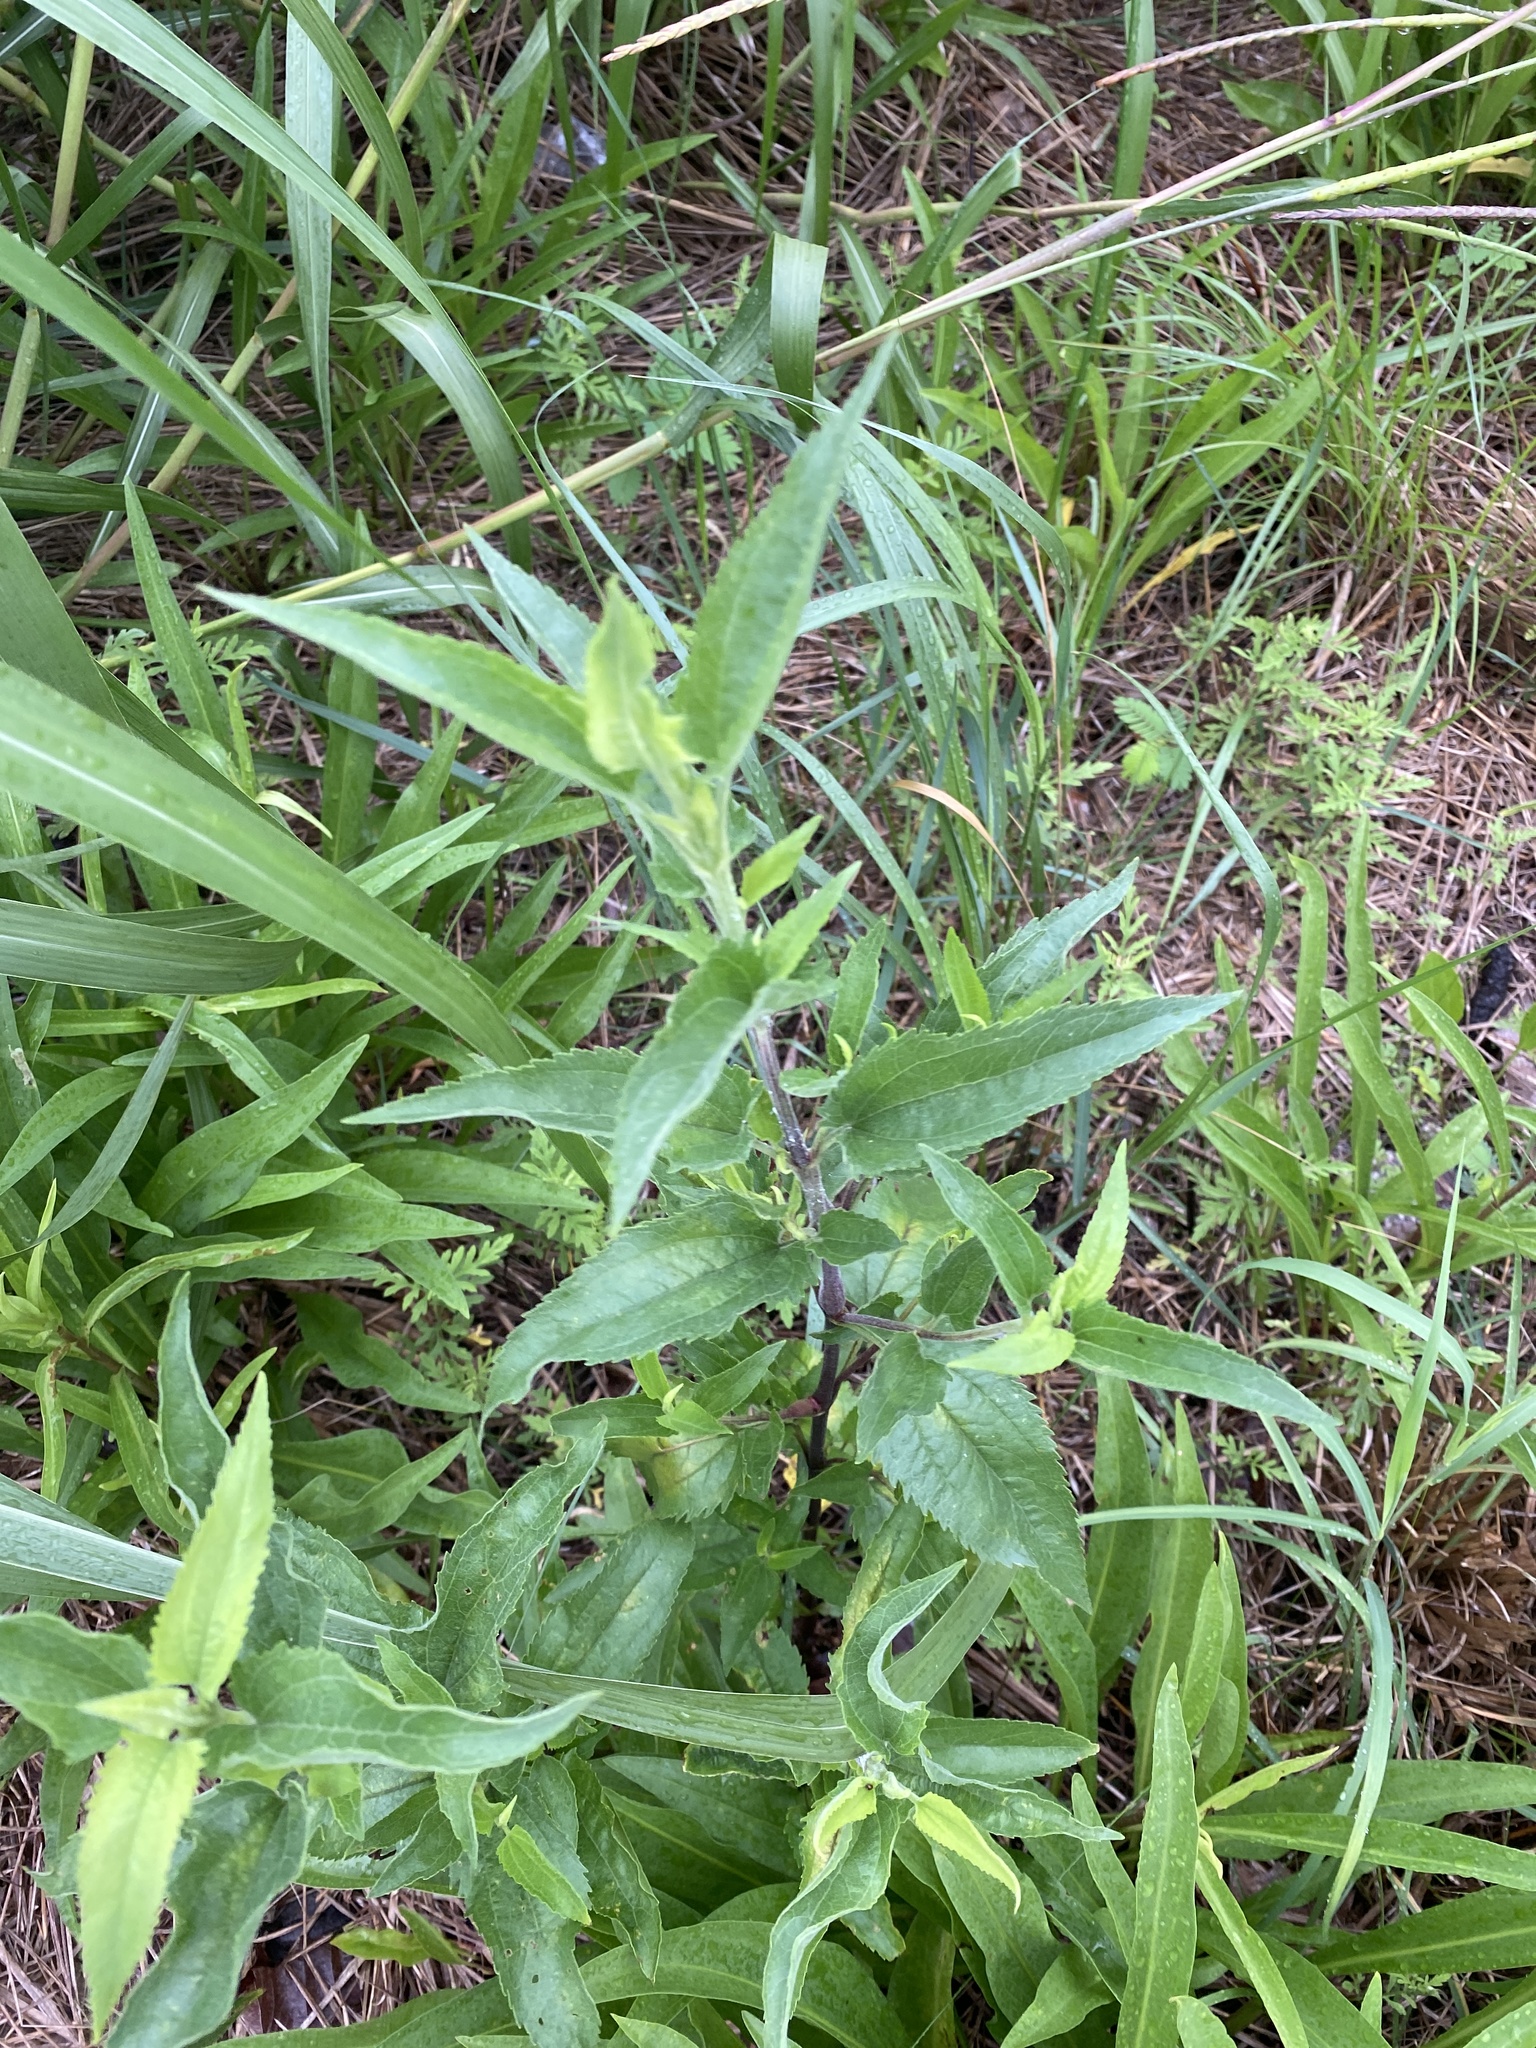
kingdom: Plantae
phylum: Tracheophyta
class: Magnoliopsida
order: Asterales
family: Asteraceae
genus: Eupatorium
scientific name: Eupatorium serotinum
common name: Late boneset
